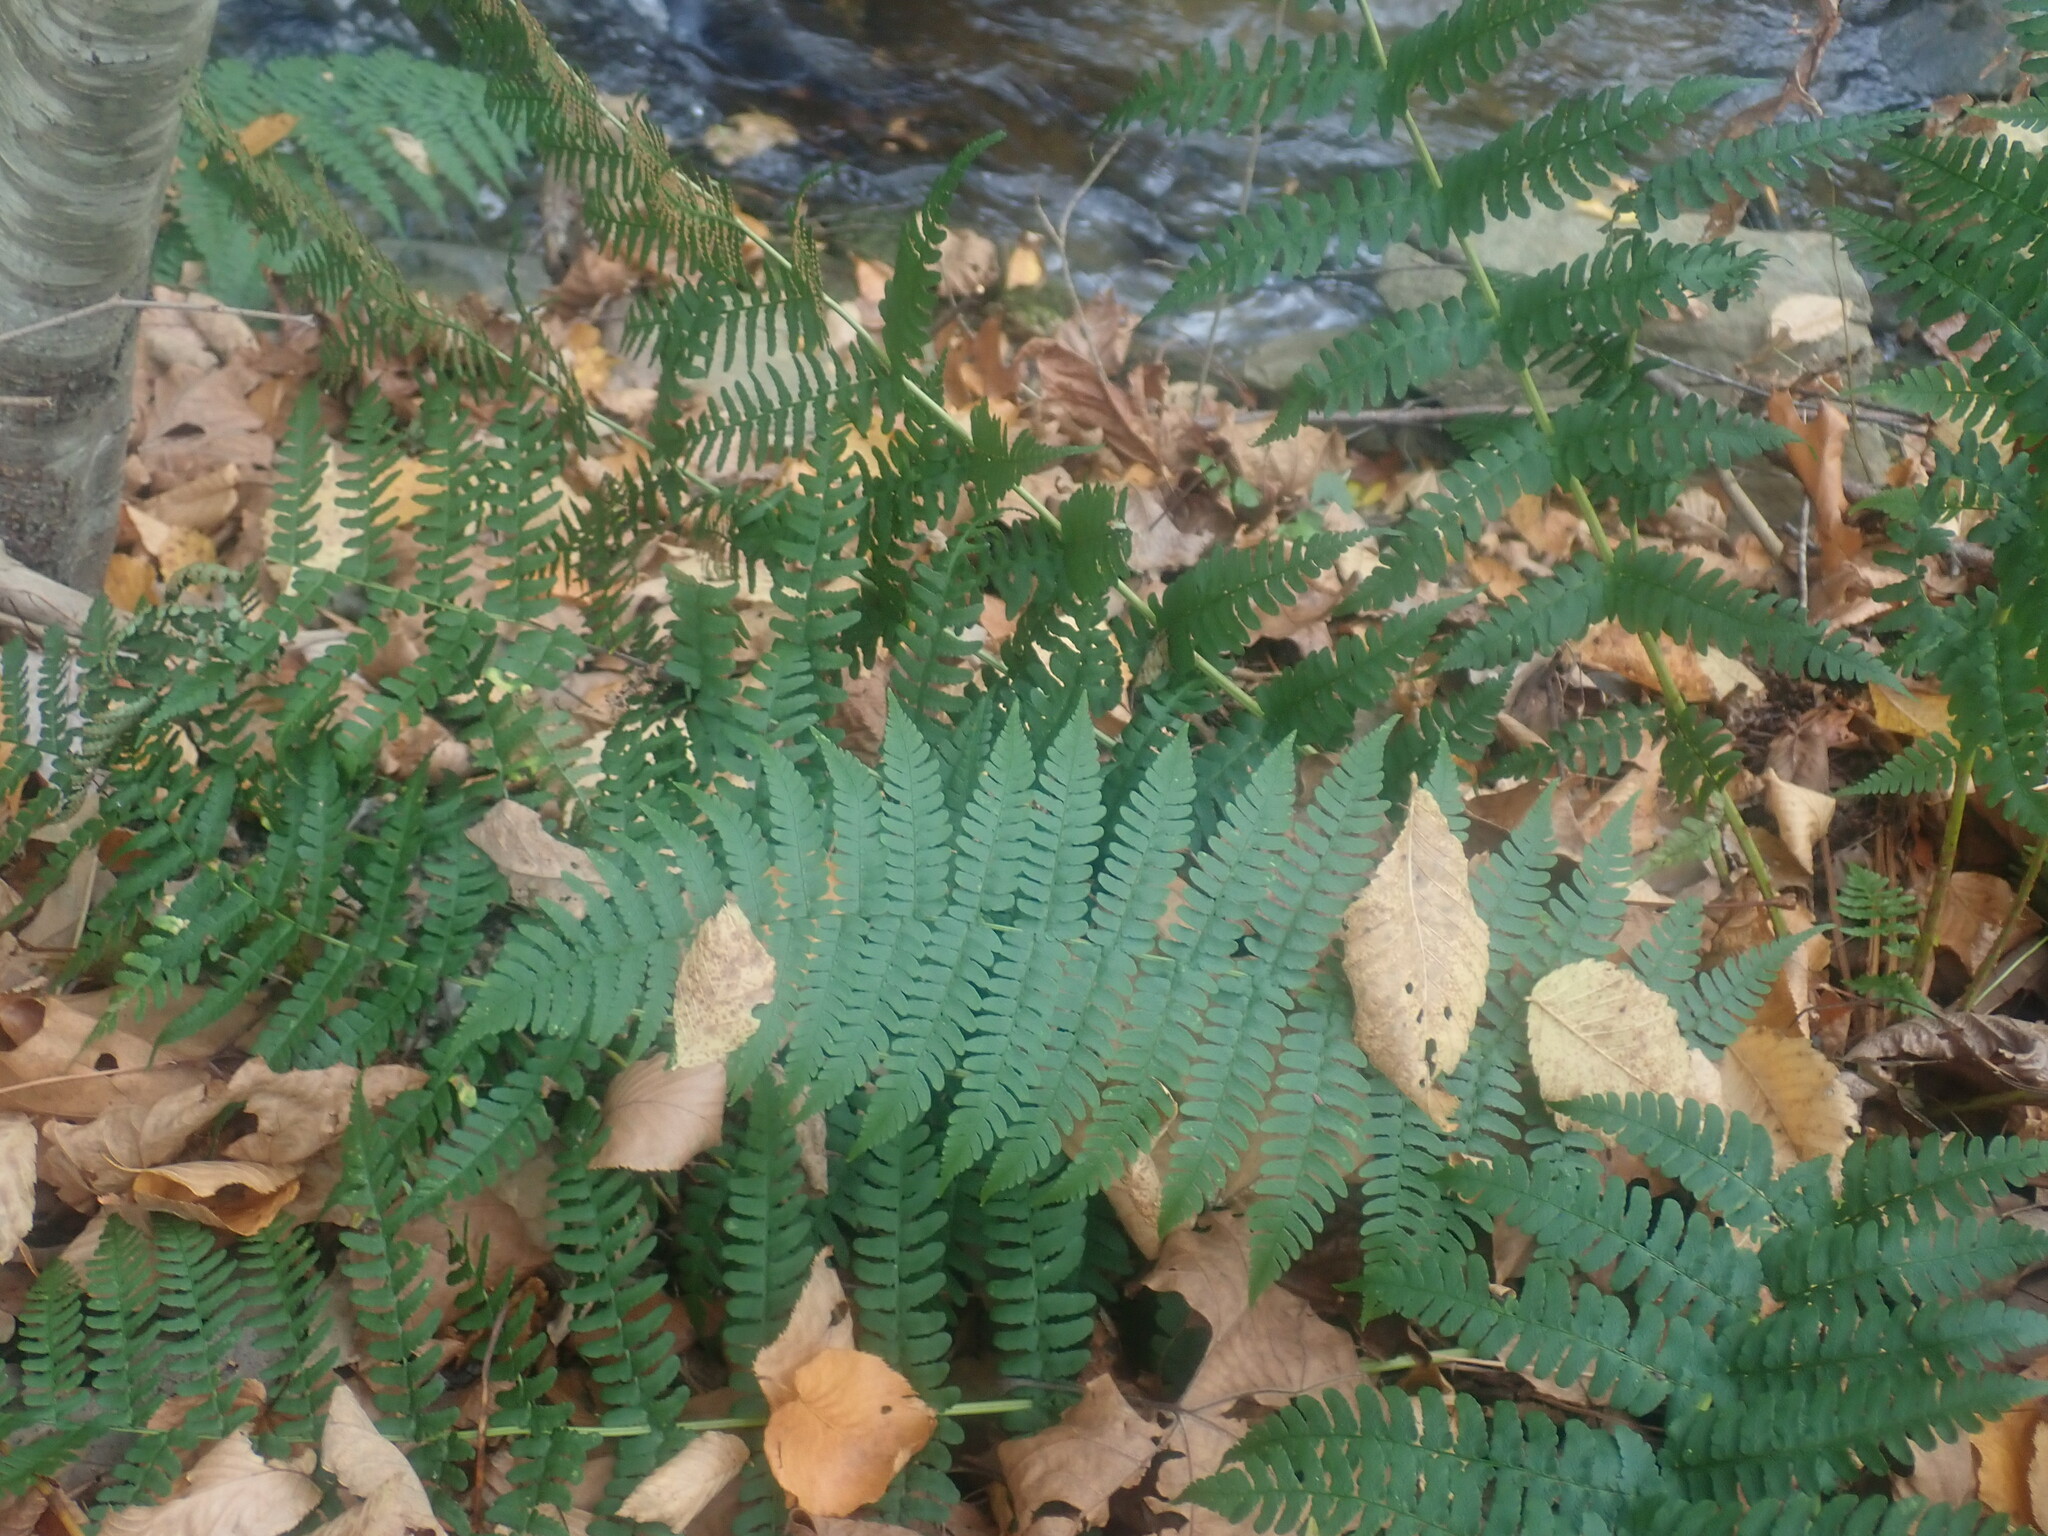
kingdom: Plantae
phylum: Tracheophyta
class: Polypodiopsida
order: Polypodiales
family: Dryopteridaceae
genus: Dryopteris
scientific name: Dryopteris marginalis
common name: Marginal wood fern
